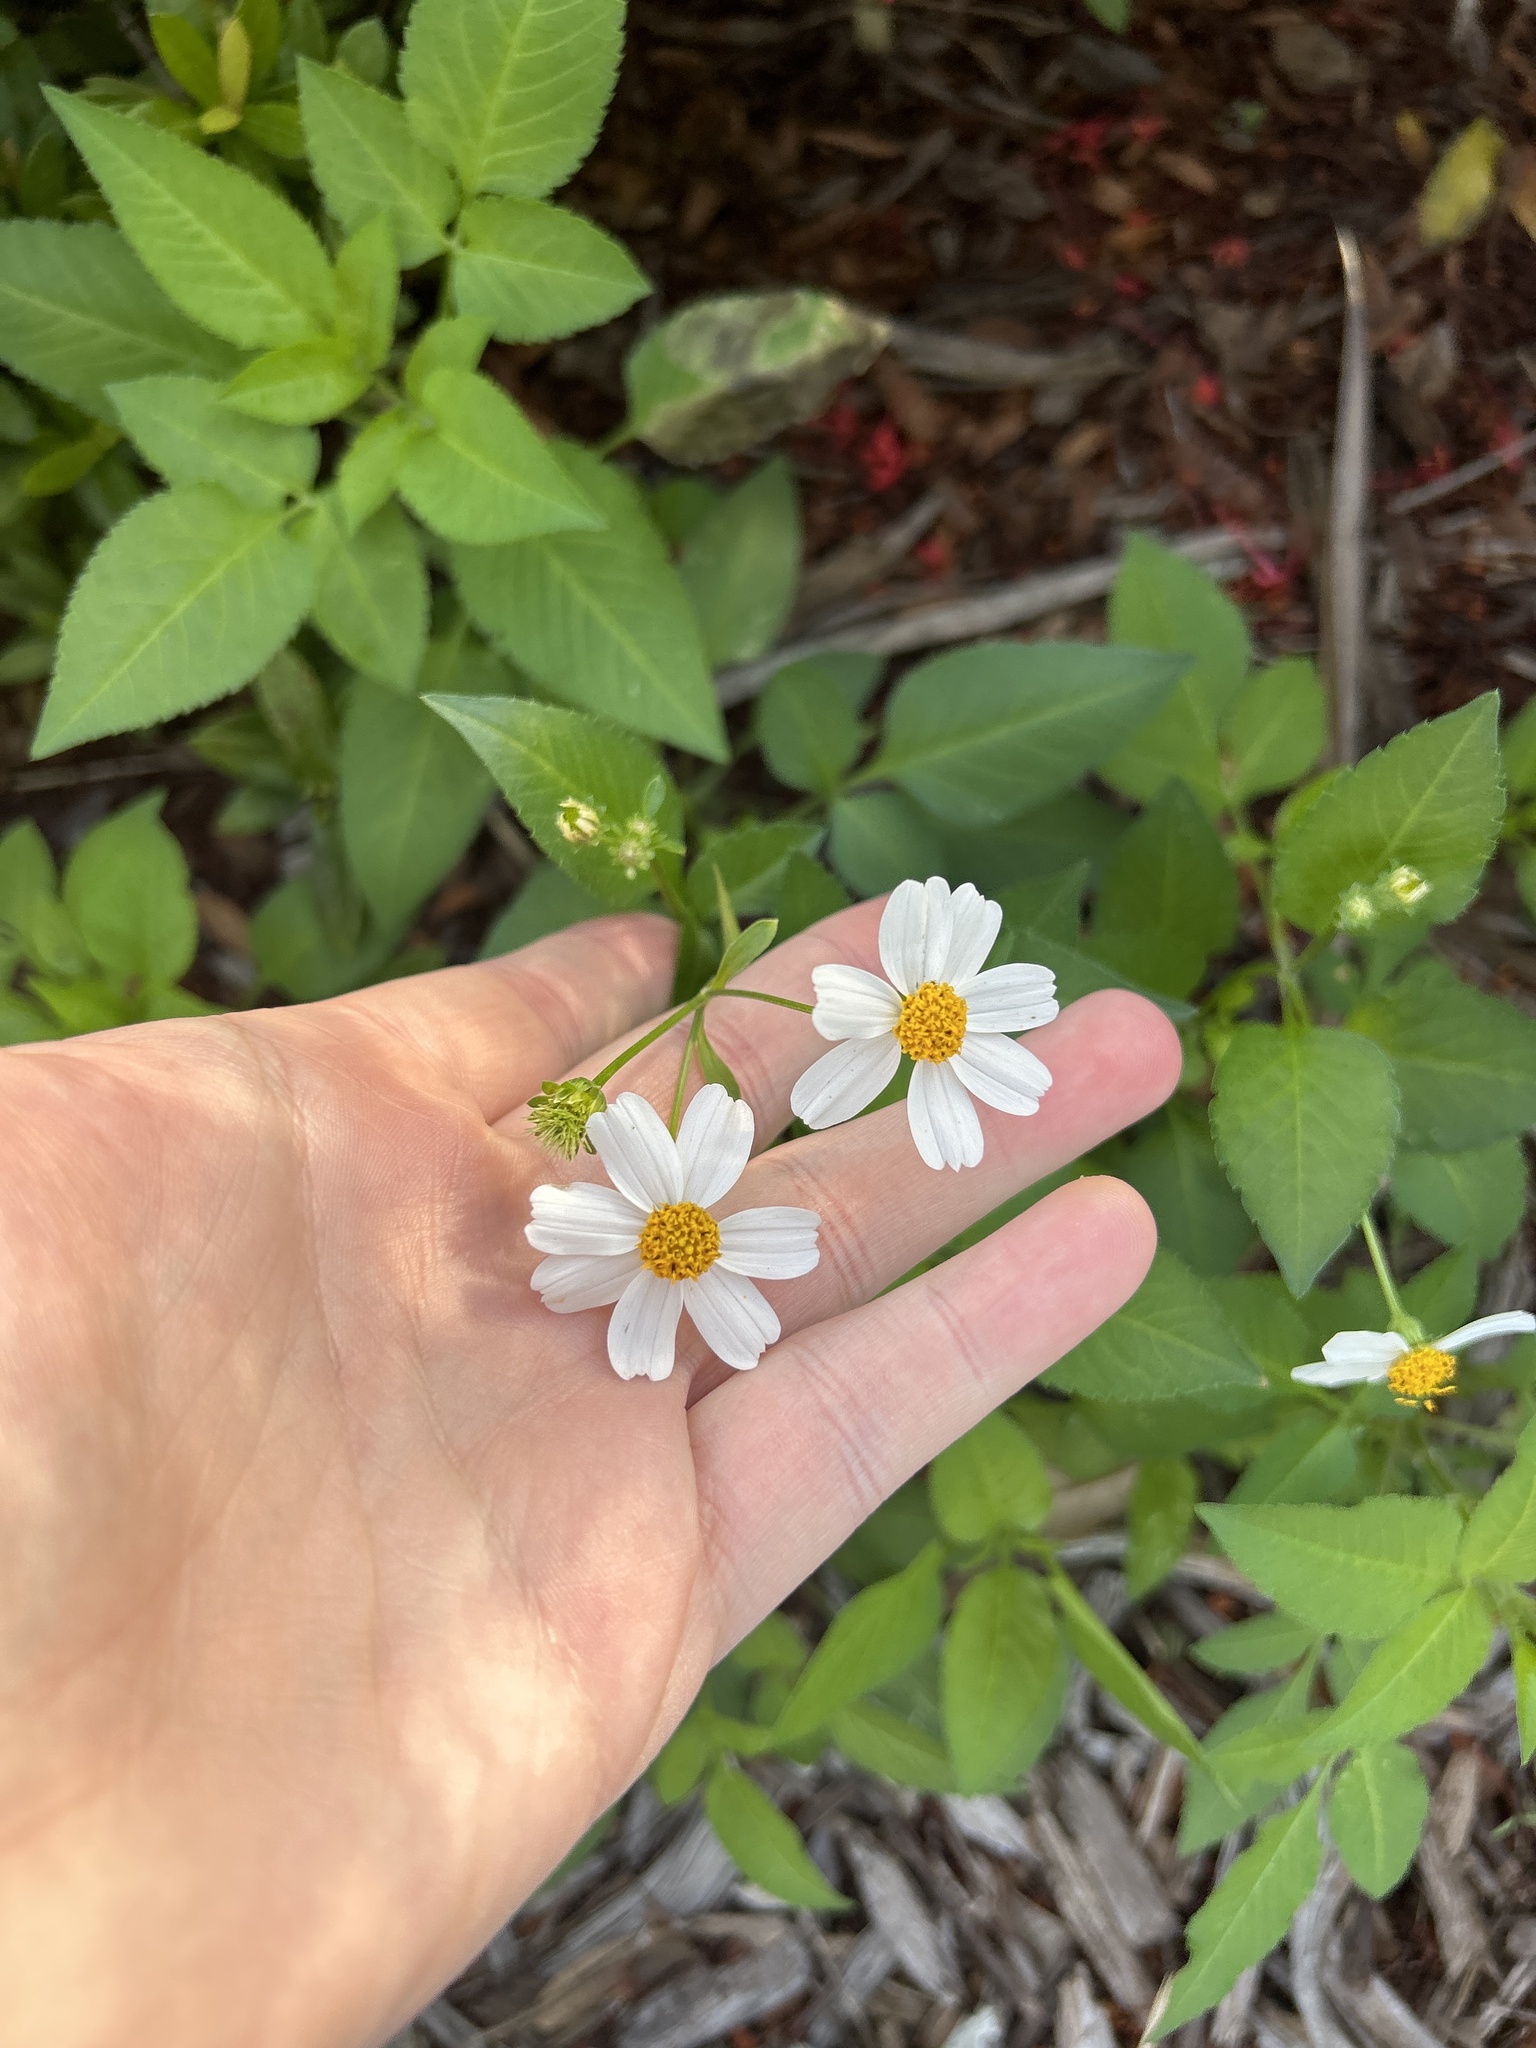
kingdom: Plantae
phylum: Tracheophyta
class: Magnoliopsida
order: Asterales
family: Asteraceae
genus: Bidens
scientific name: Bidens alba
